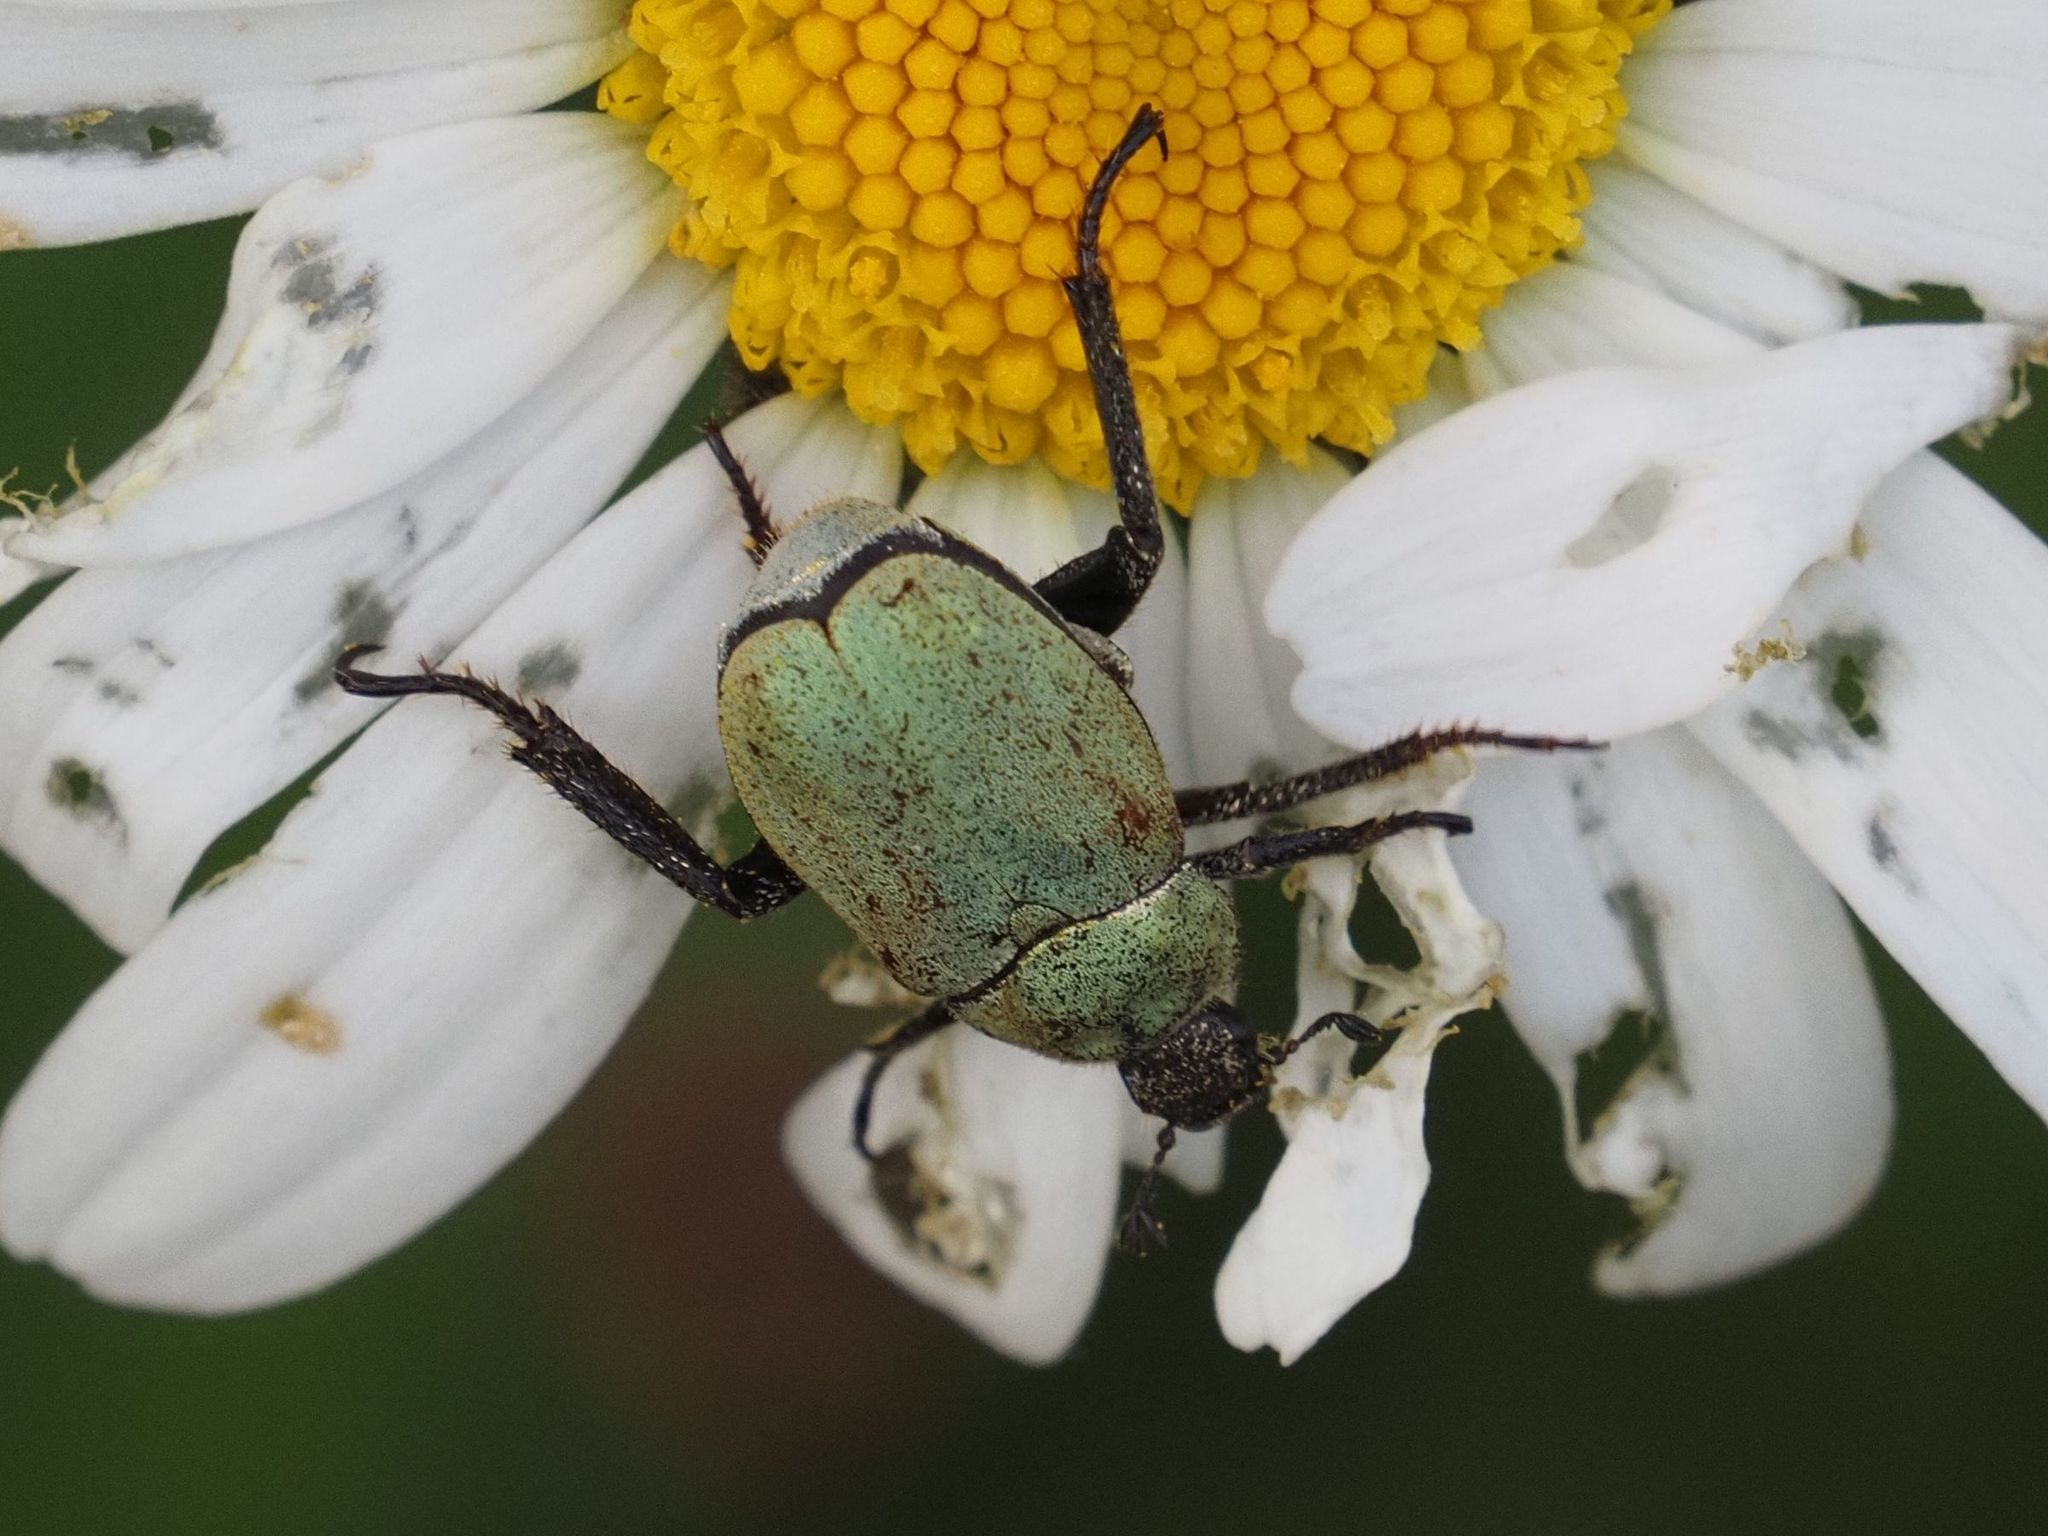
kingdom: Animalia
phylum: Arthropoda
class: Insecta
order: Coleoptera
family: Scarabaeidae
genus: Hoplia
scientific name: Hoplia argentea
